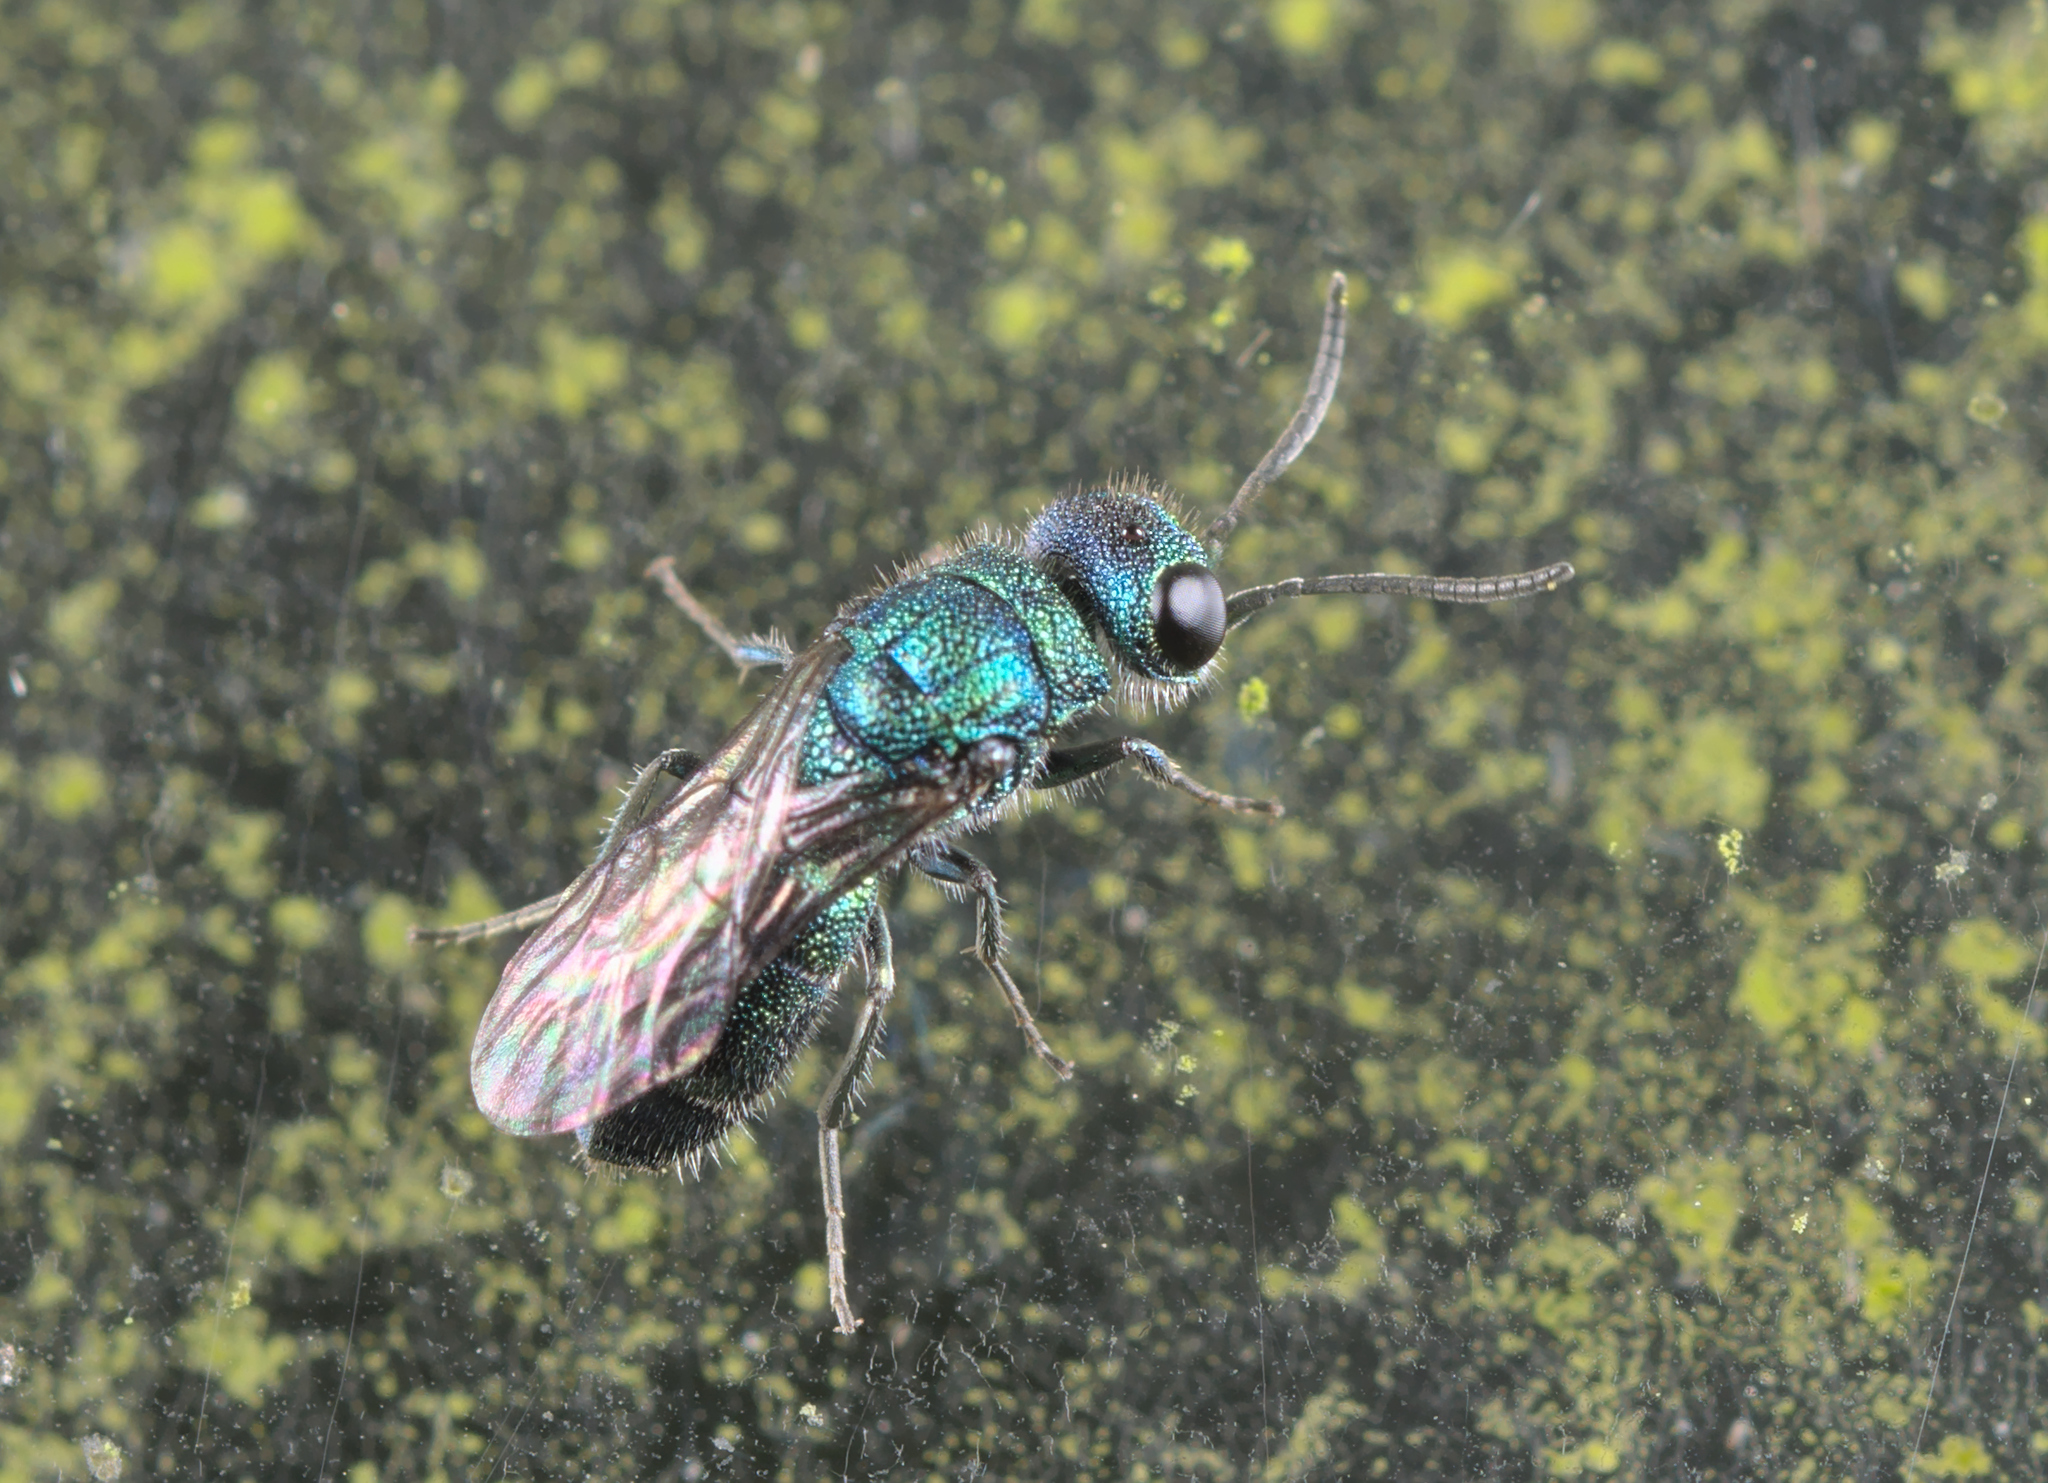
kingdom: Animalia
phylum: Arthropoda
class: Insecta
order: Hymenoptera
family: Pompilidae
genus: Pepsis
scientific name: Pepsis cyanea
